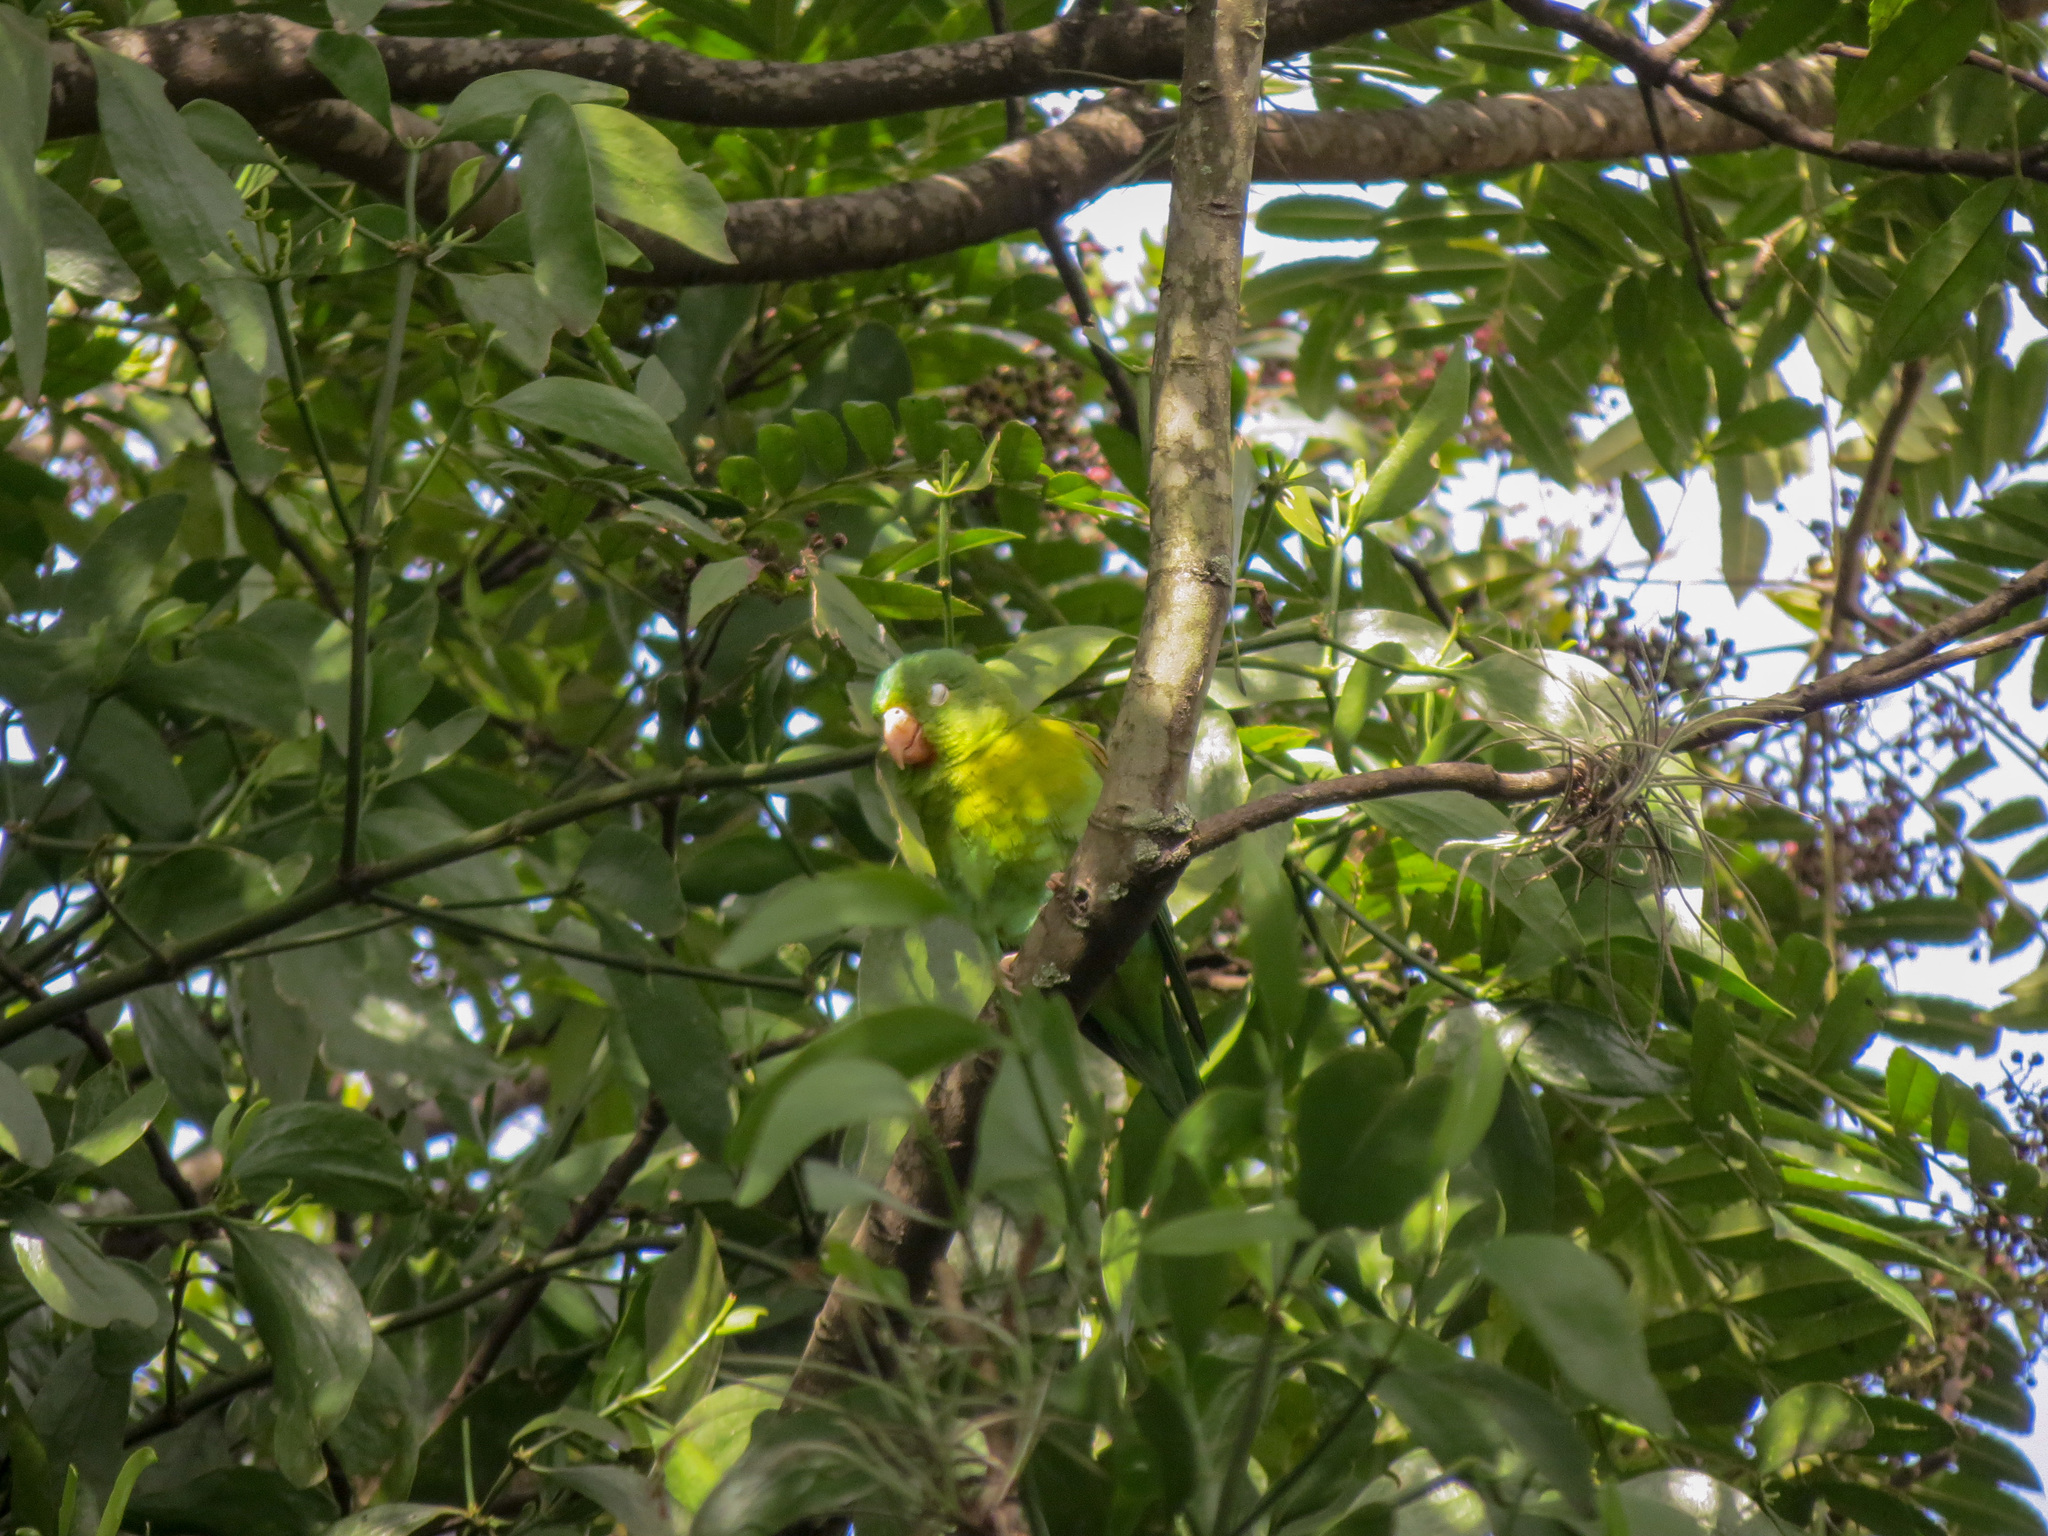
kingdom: Animalia
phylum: Chordata
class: Aves
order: Psittaciformes
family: Psittacidae
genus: Brotogeris
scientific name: Brotogeris jugularis
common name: Orange-chinned parakeet
